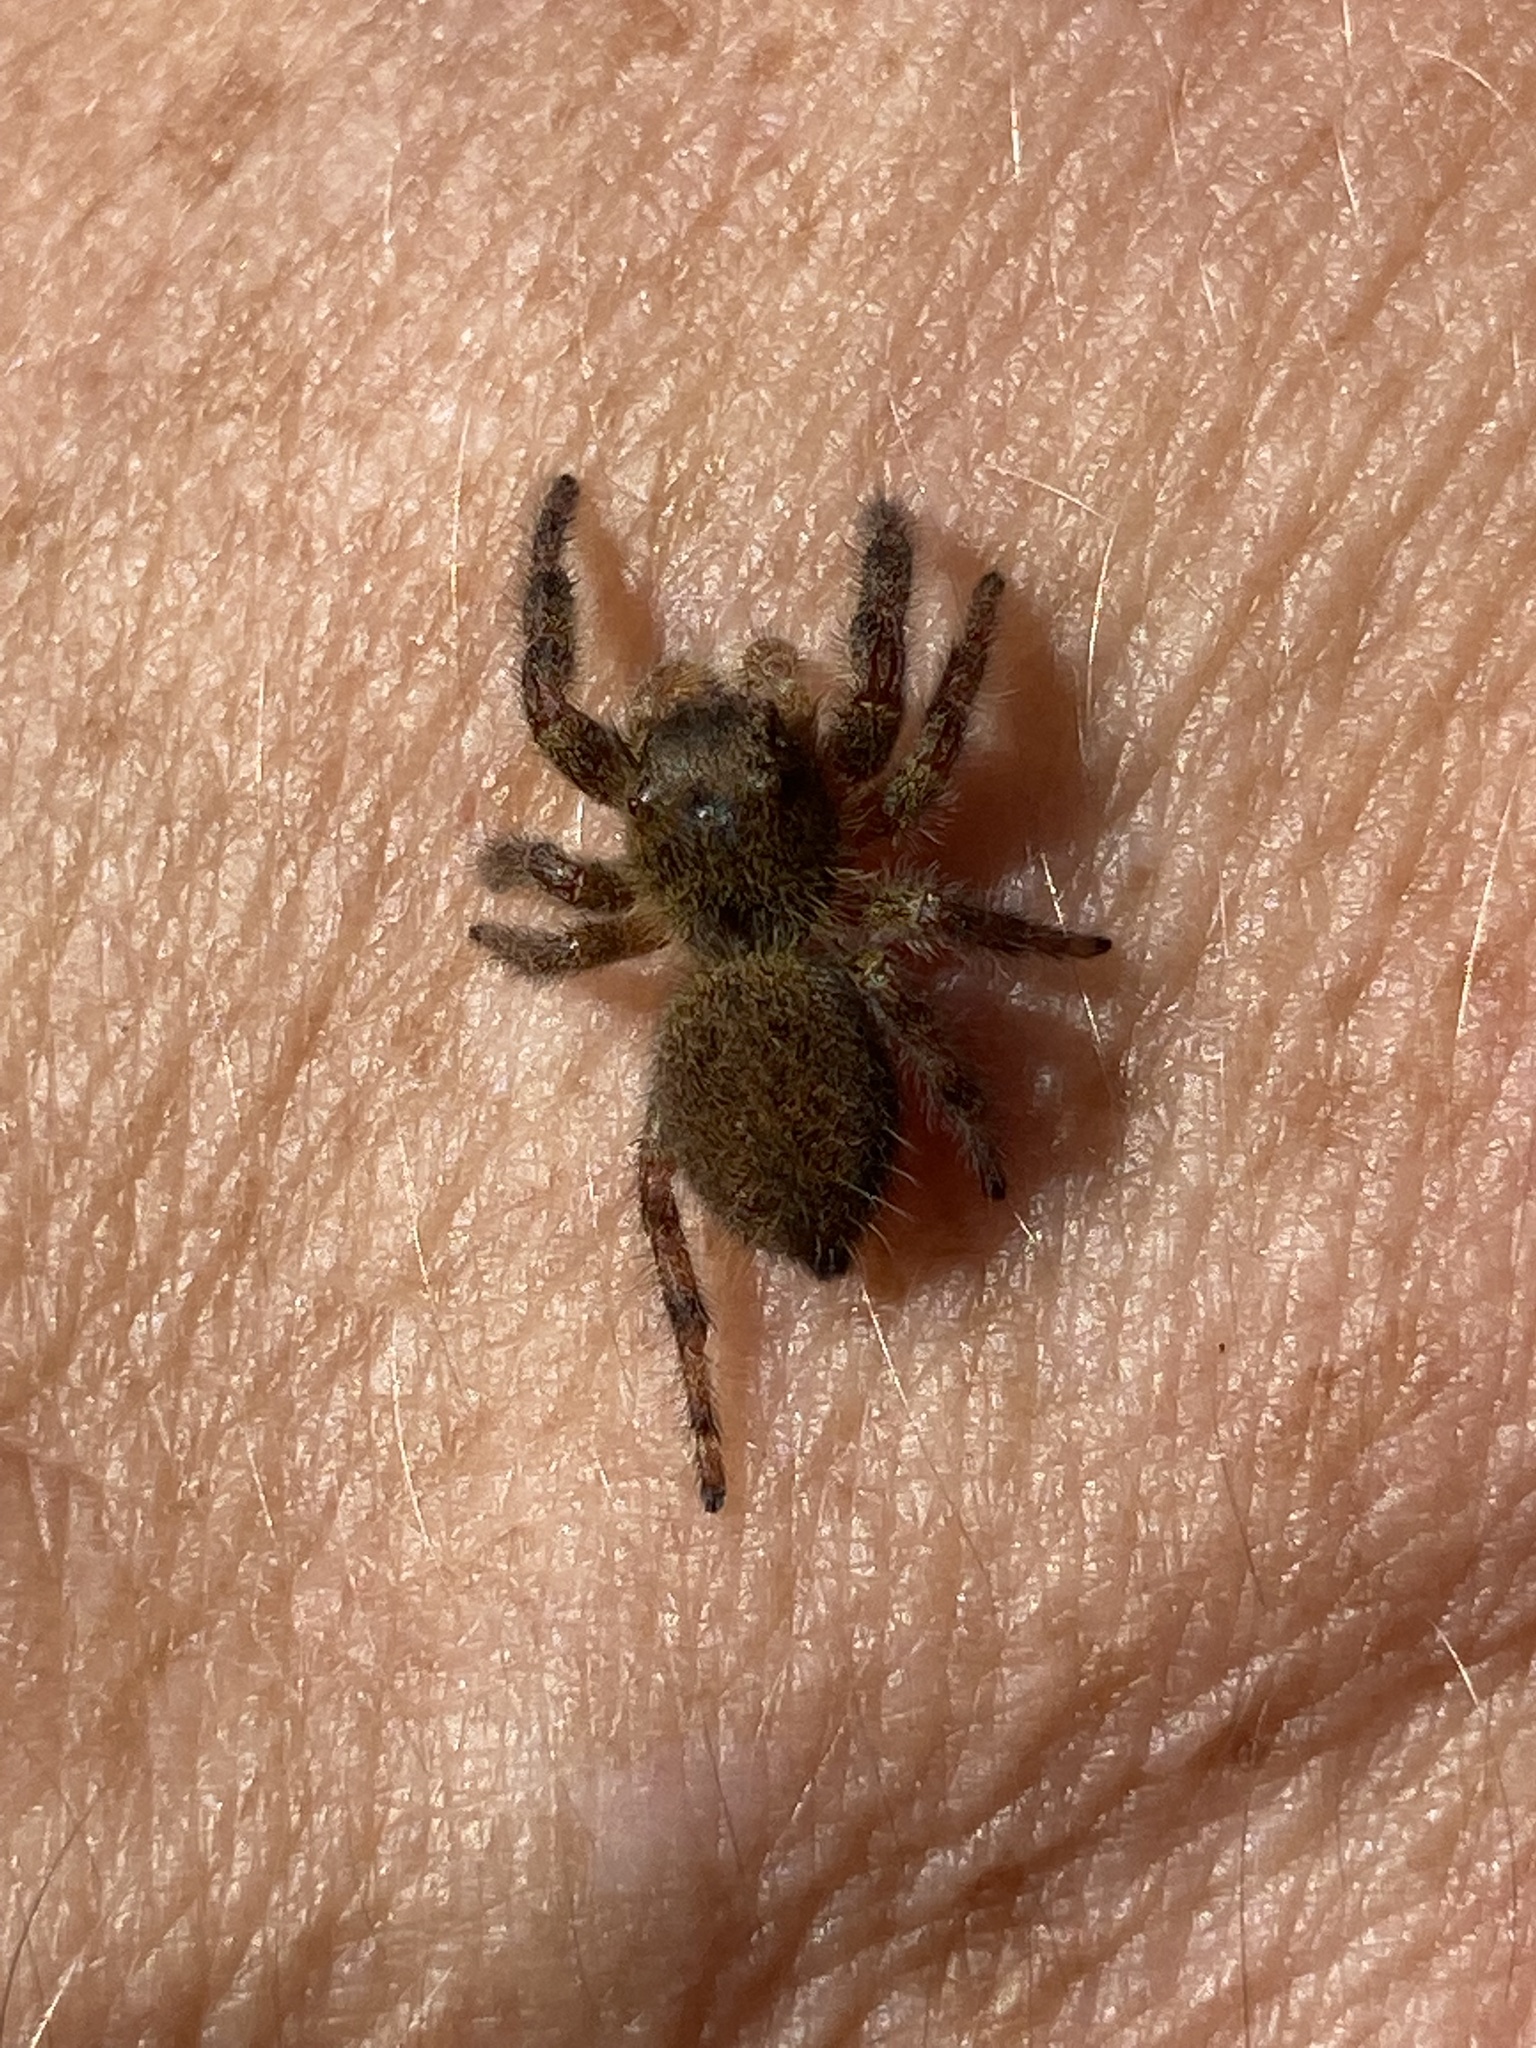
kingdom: Animalia
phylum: Arthropoda
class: Arachnida
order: Araneae
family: Salticidae
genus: Phidippus
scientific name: Phidippus princeps
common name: Grayish jumping spider
